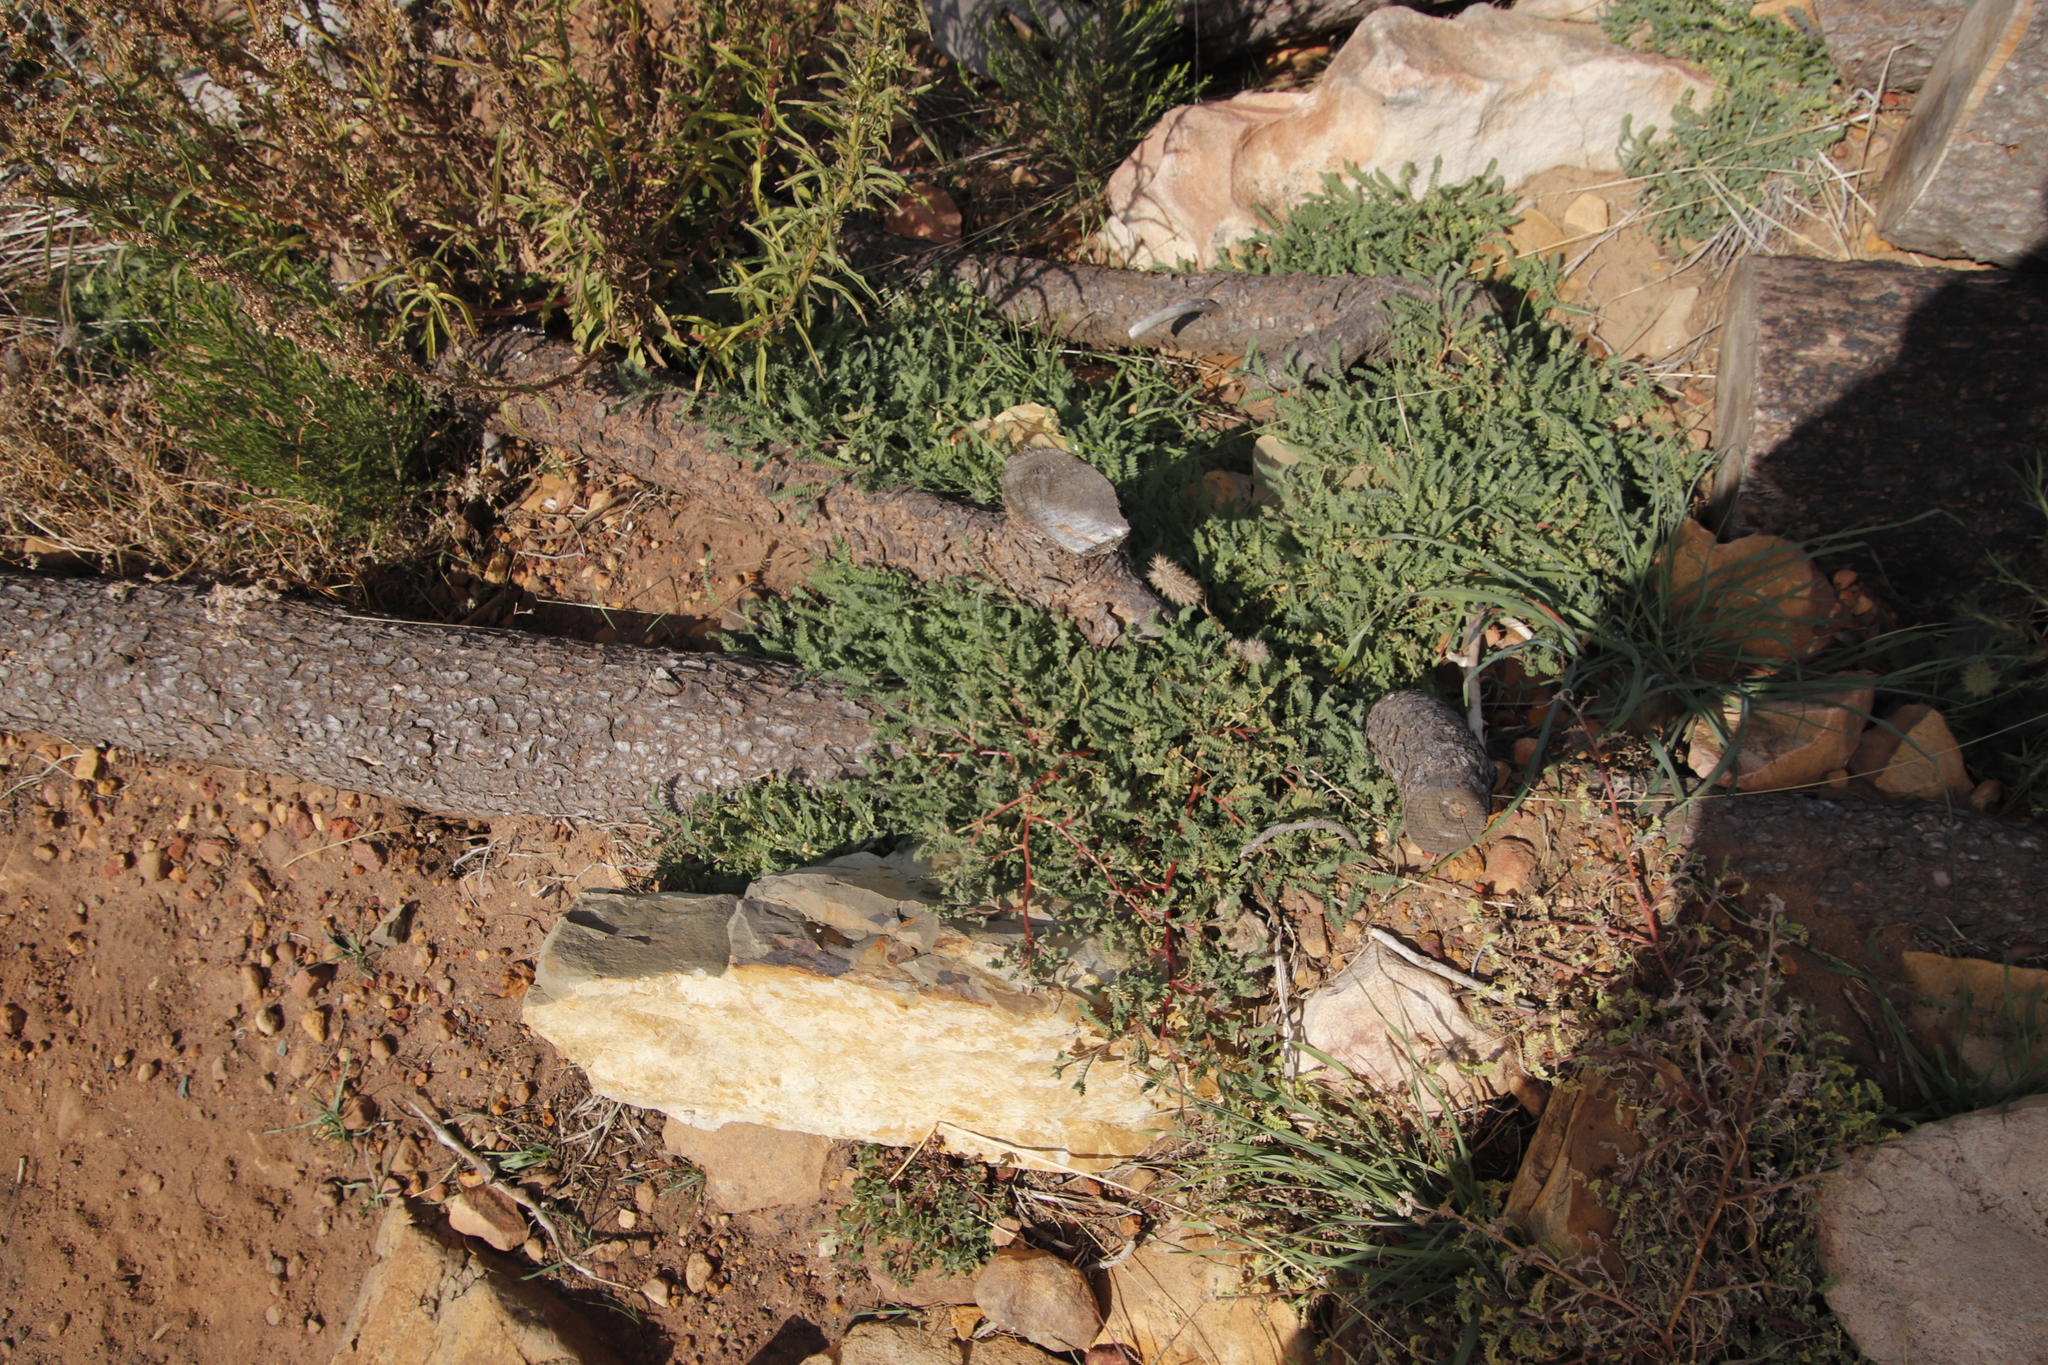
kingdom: Plantae
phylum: Tracheophyta
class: Magnoliopsida
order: Zygophyllales
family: Zygophyllaceae
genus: Tribulus
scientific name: Tribulus terrestris
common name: Puncturevine
